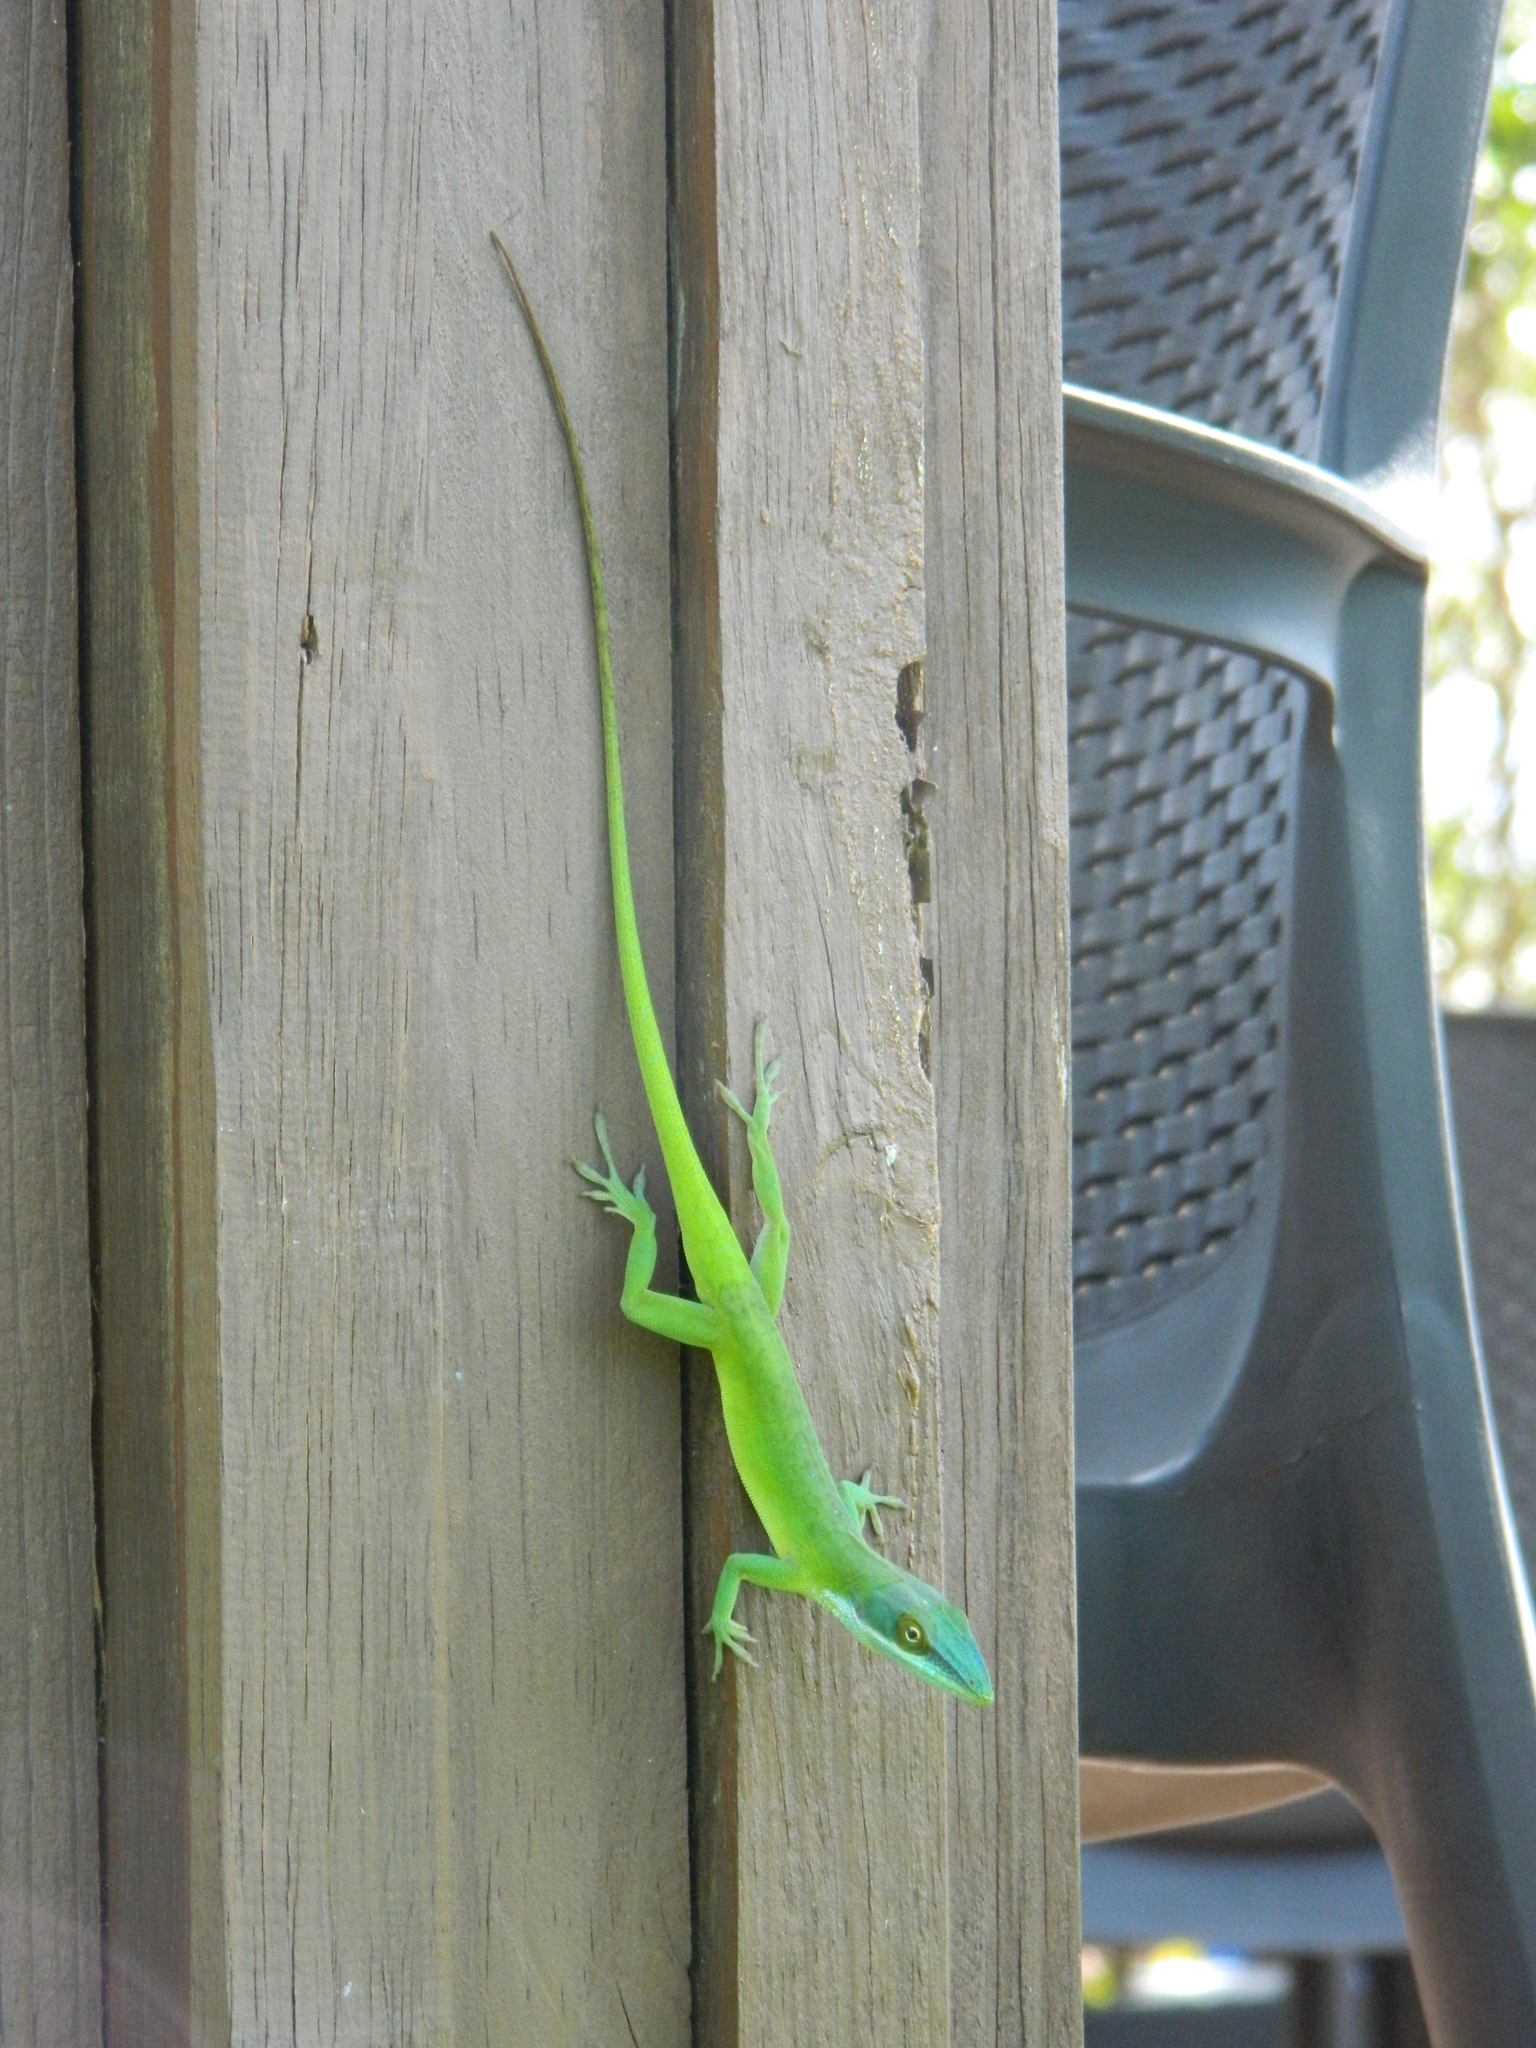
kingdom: Animalia
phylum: Chordata
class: Squamata
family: Dactyloidae
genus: Anolis
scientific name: Anolis allisoni
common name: Allison's anole
